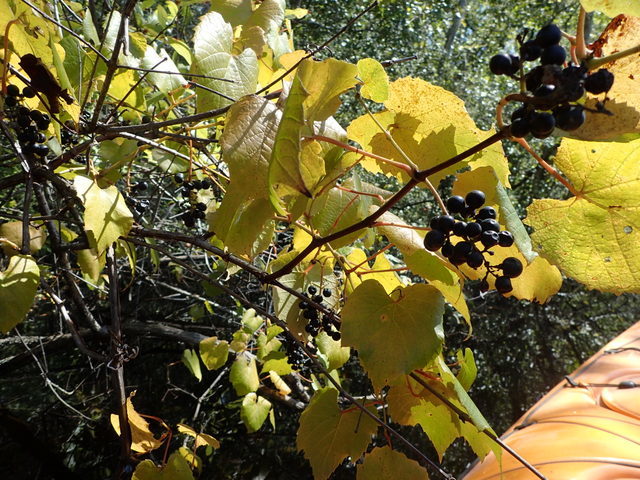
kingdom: Plantae
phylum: Tracheophyta
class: Magnoliopsida
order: Vitales
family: Vitaceae
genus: Vitis
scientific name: Vitis rotundifolia
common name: Muscadine grape
